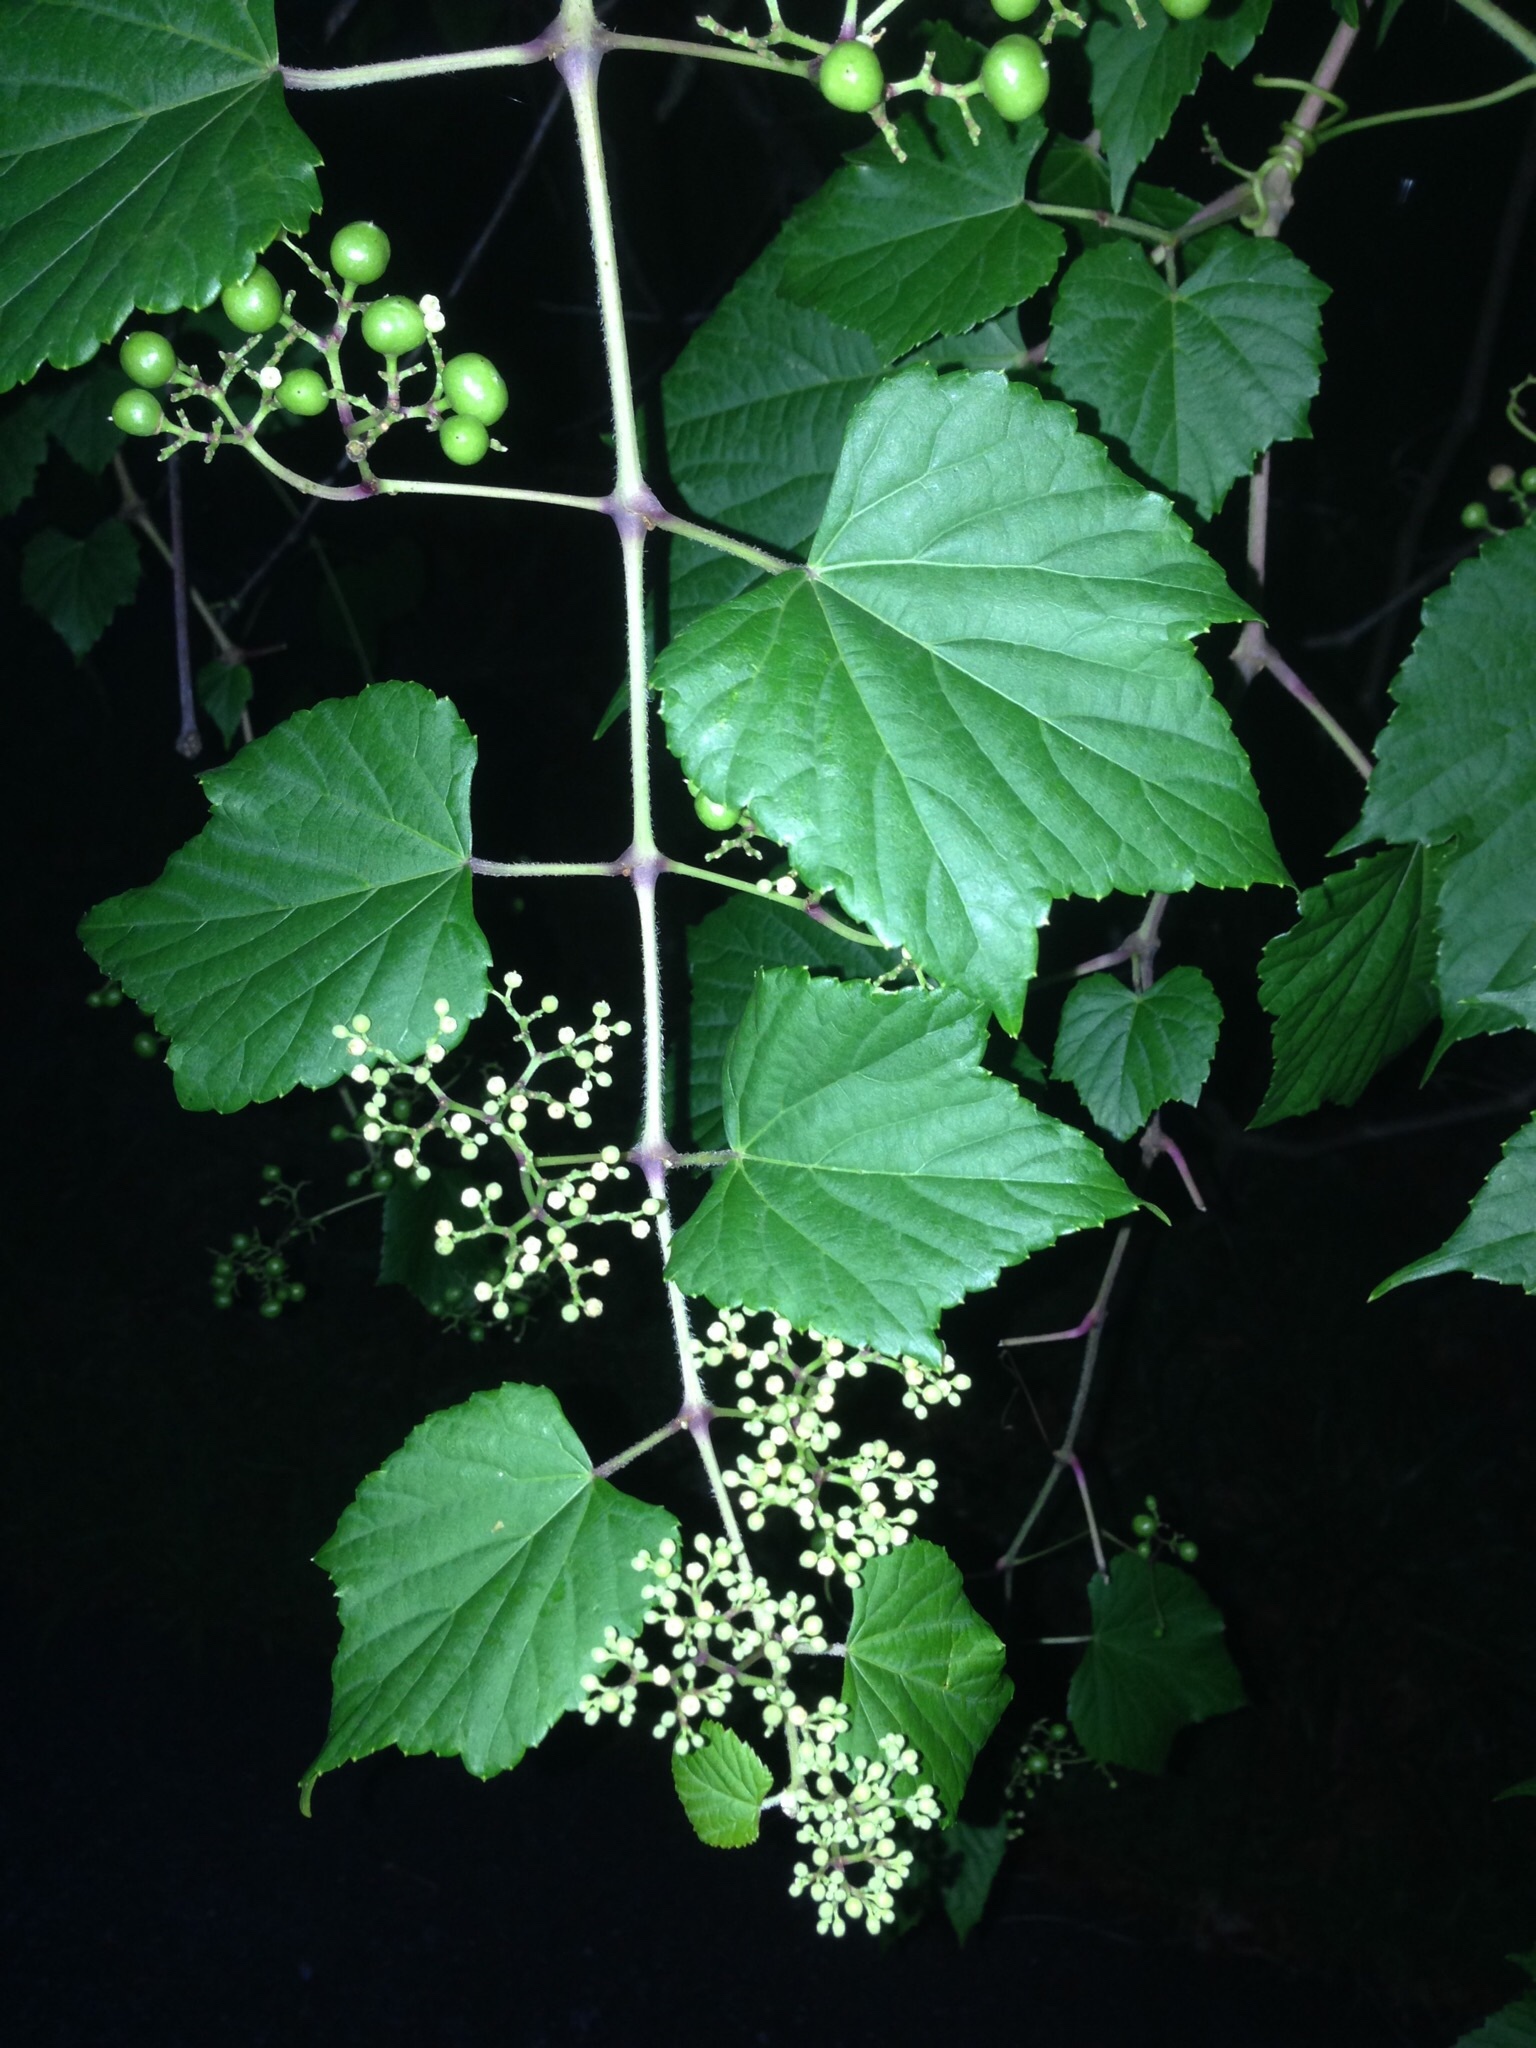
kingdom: Plantae
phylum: Tracheophyta
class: Magnoliopsida
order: Vitales
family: Vitaceae
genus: Ampelopsis
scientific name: Ampelopsis glandulosa
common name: Amur peppervine
